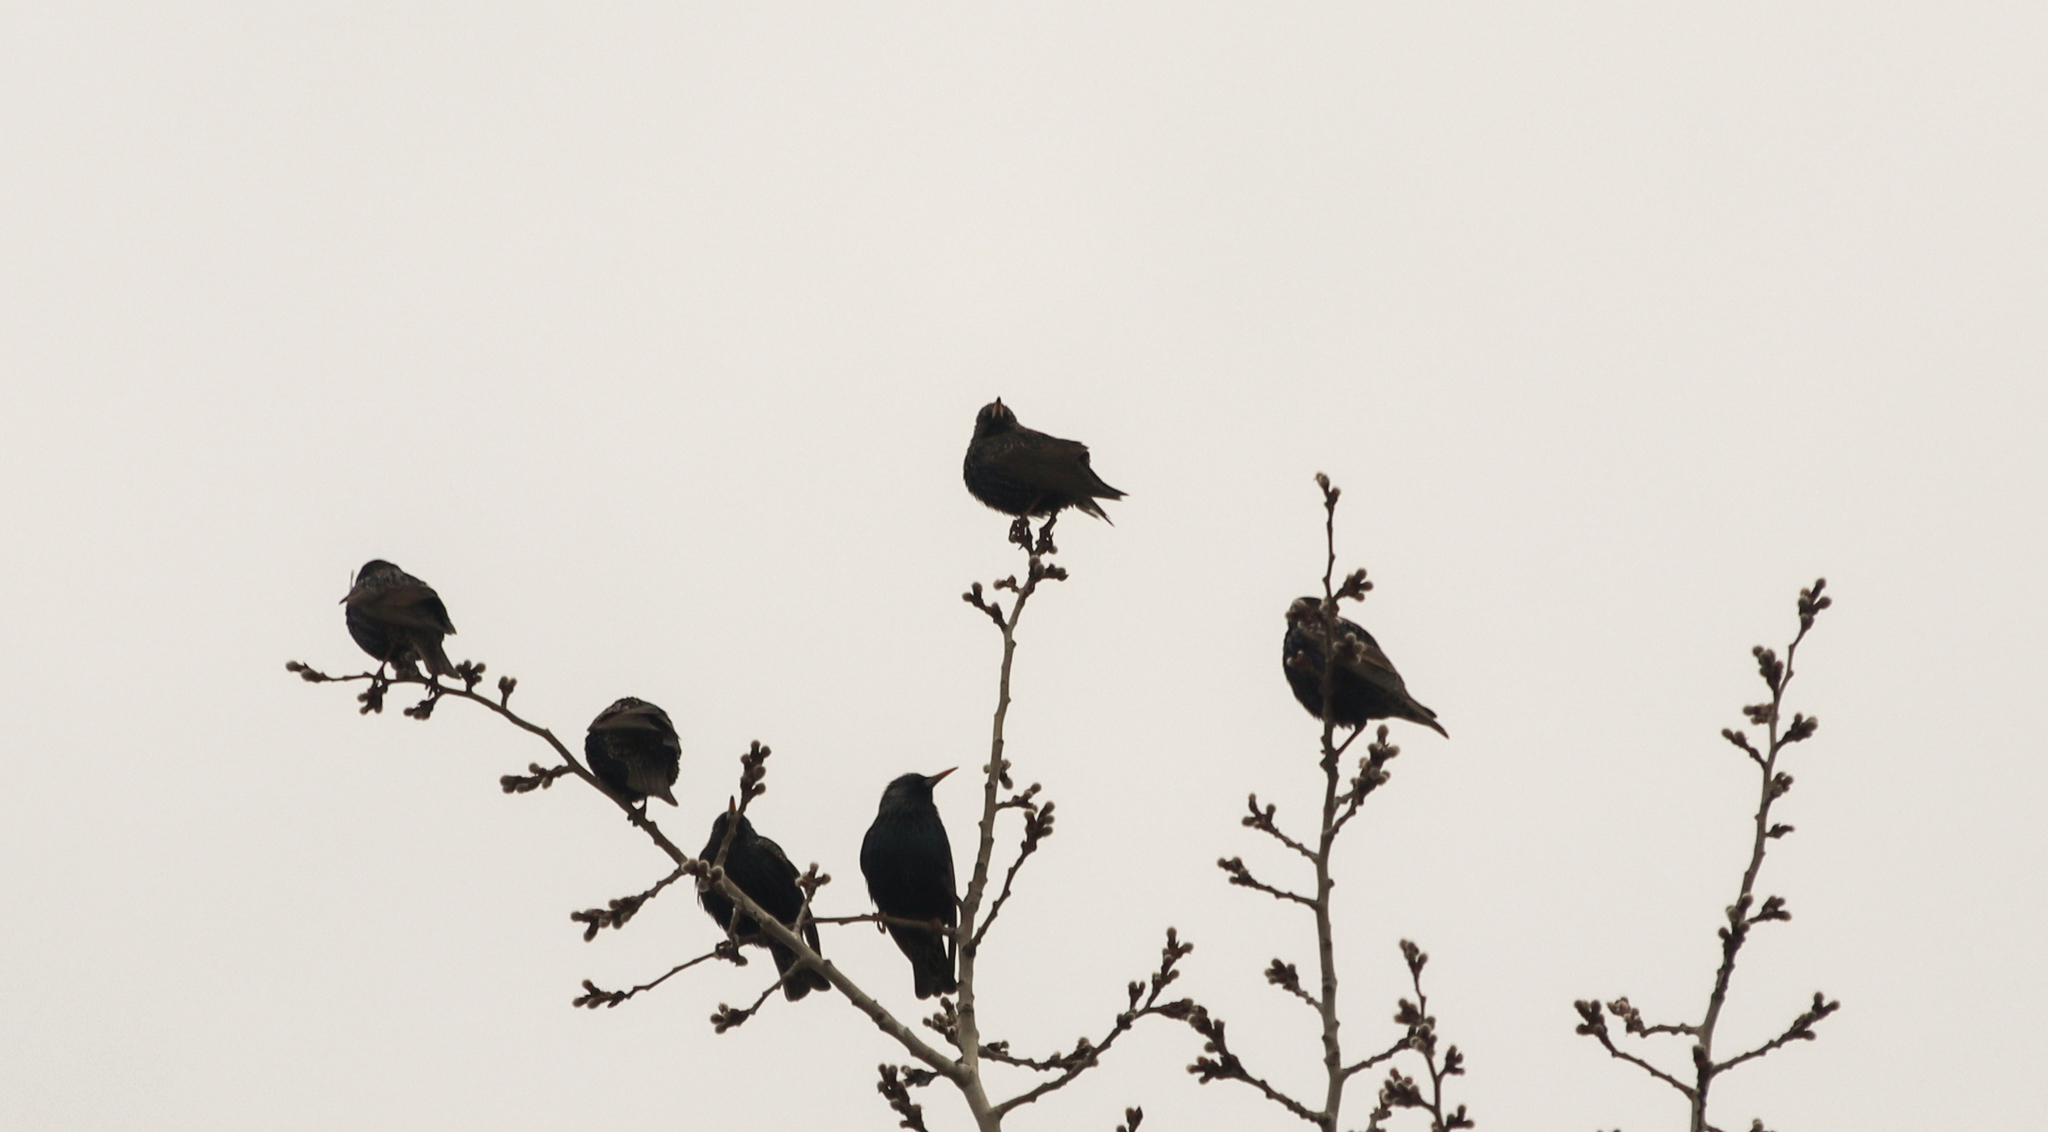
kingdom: Animalia
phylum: Chordata
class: Aves
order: Passeriformes
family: Sturnidae
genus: Sturnus
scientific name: Sturnus vulgaris
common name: Common starling
